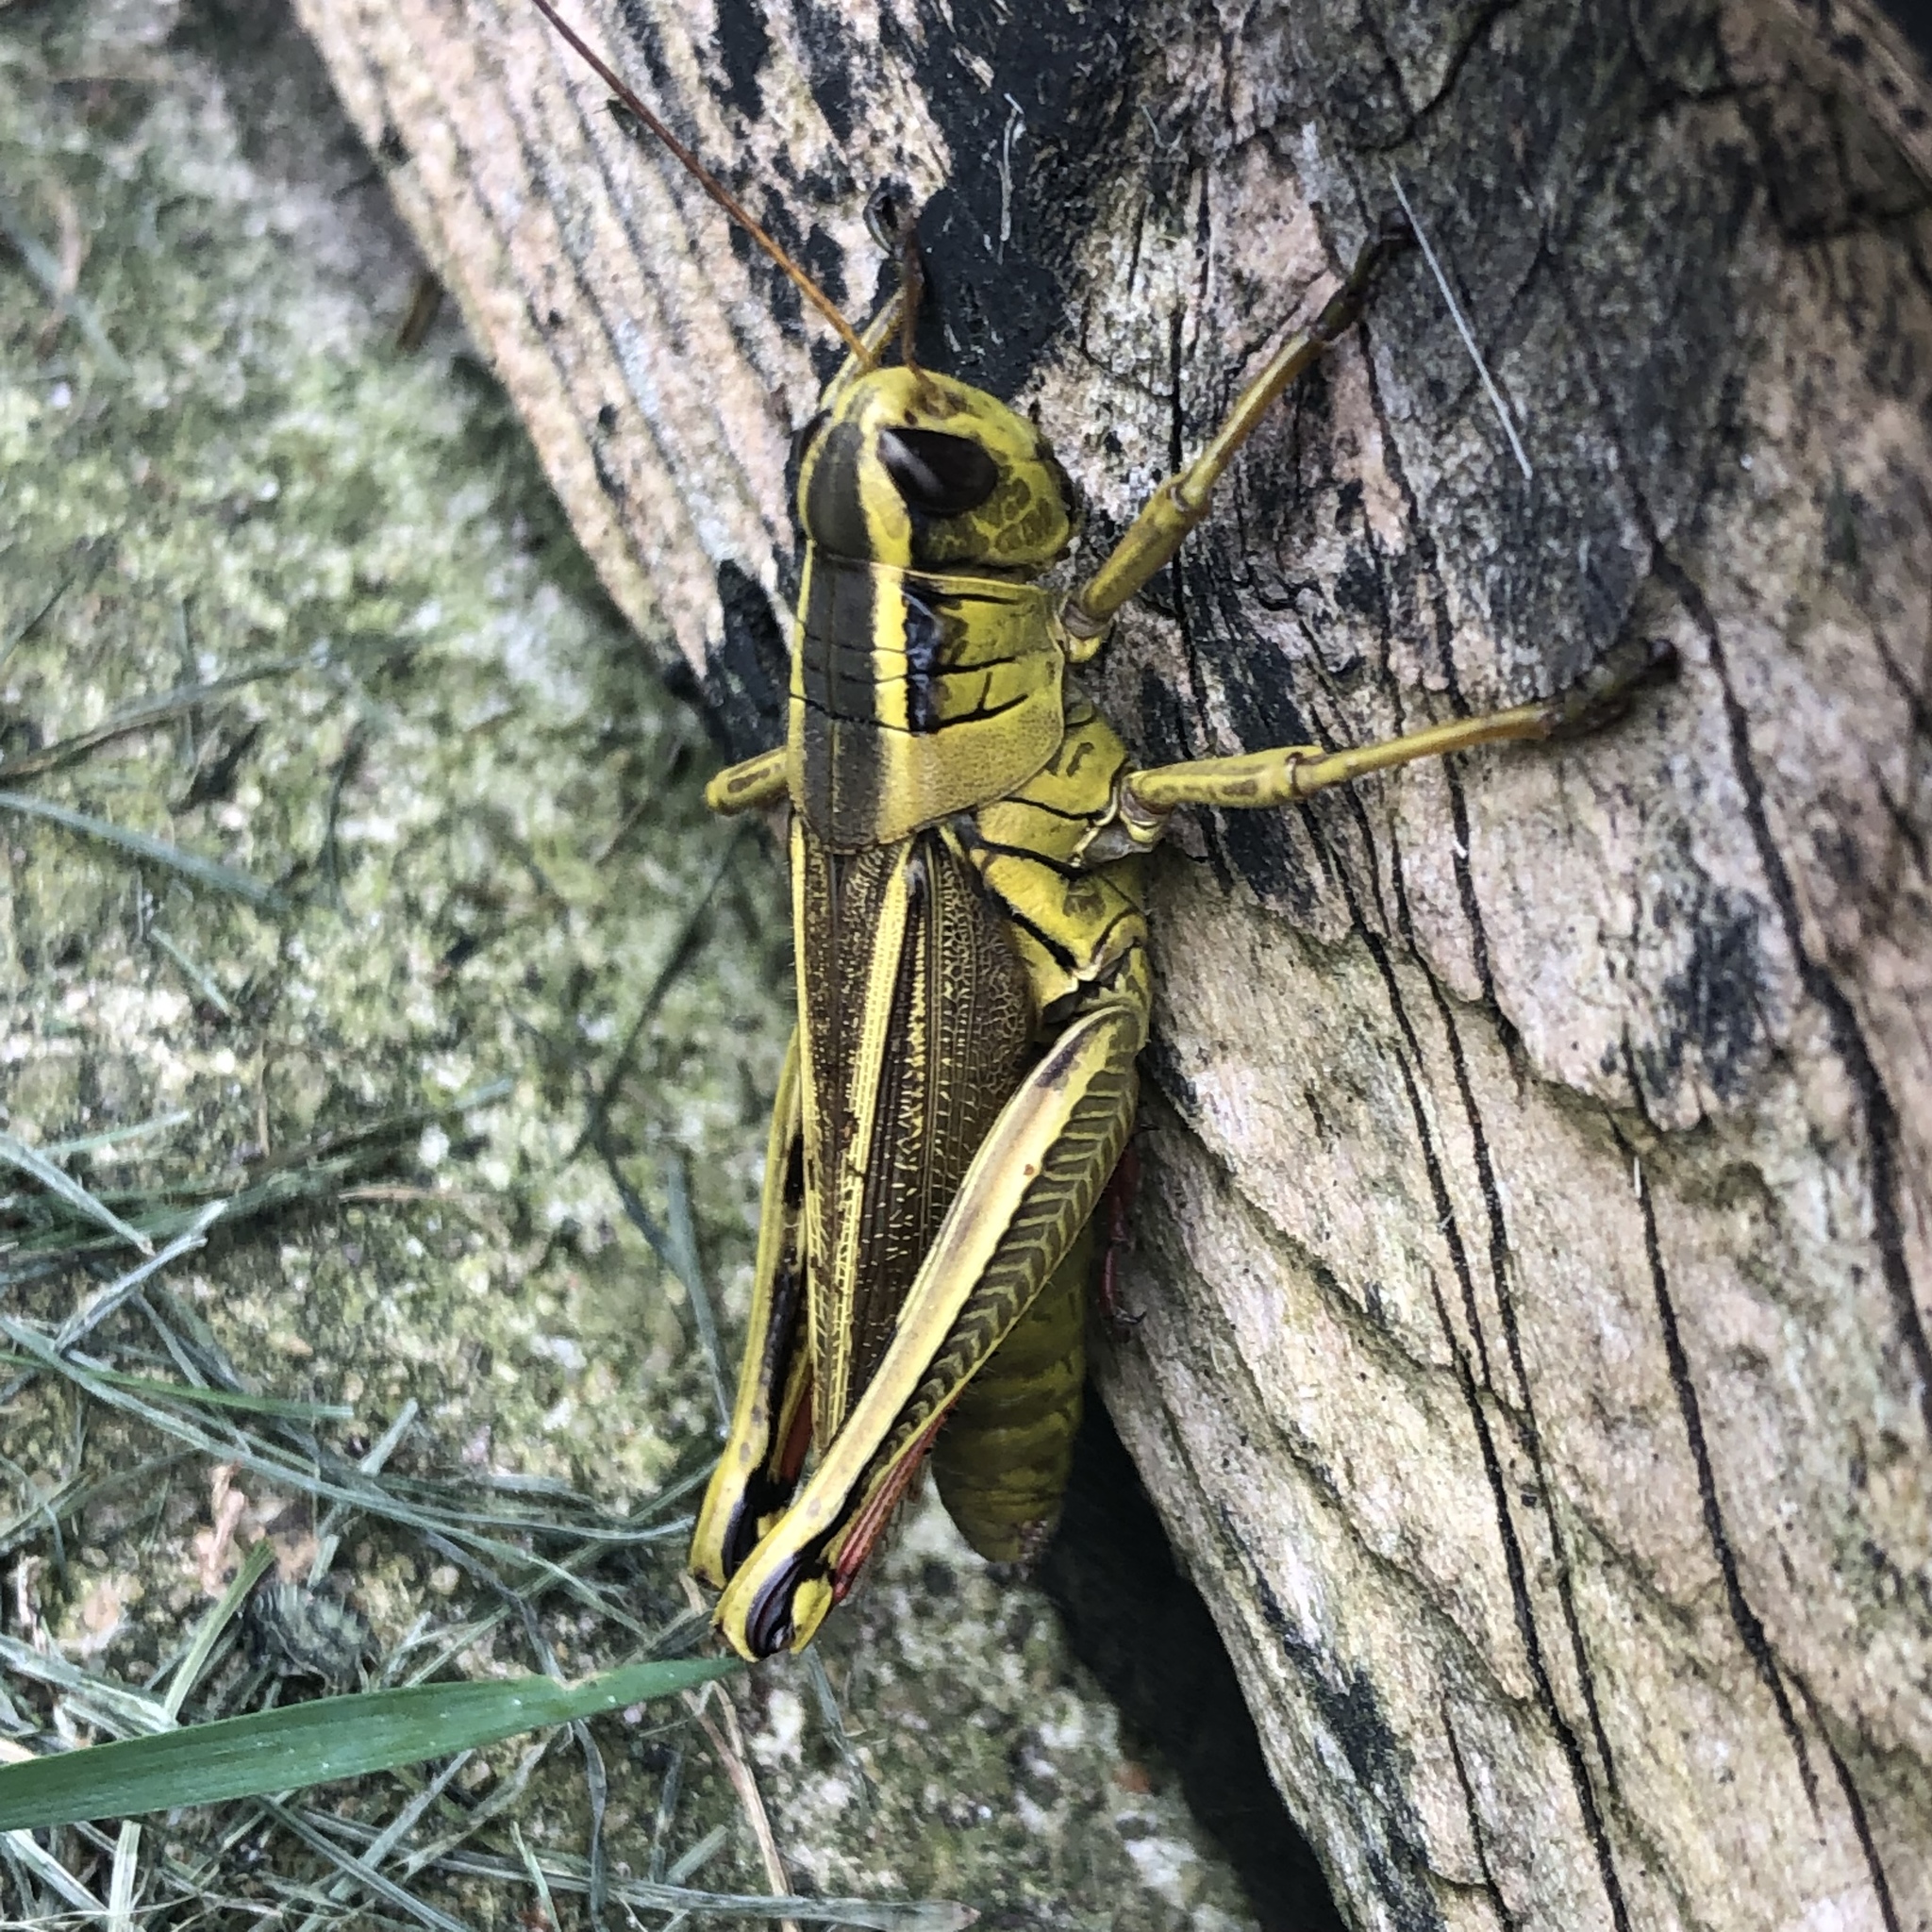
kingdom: Animalia
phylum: Arthropoda
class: Insecta
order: Orthoptera
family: Acrididae
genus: Melanoplus
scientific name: Melanoplus bivittatus
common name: Two-striped grasshopper
